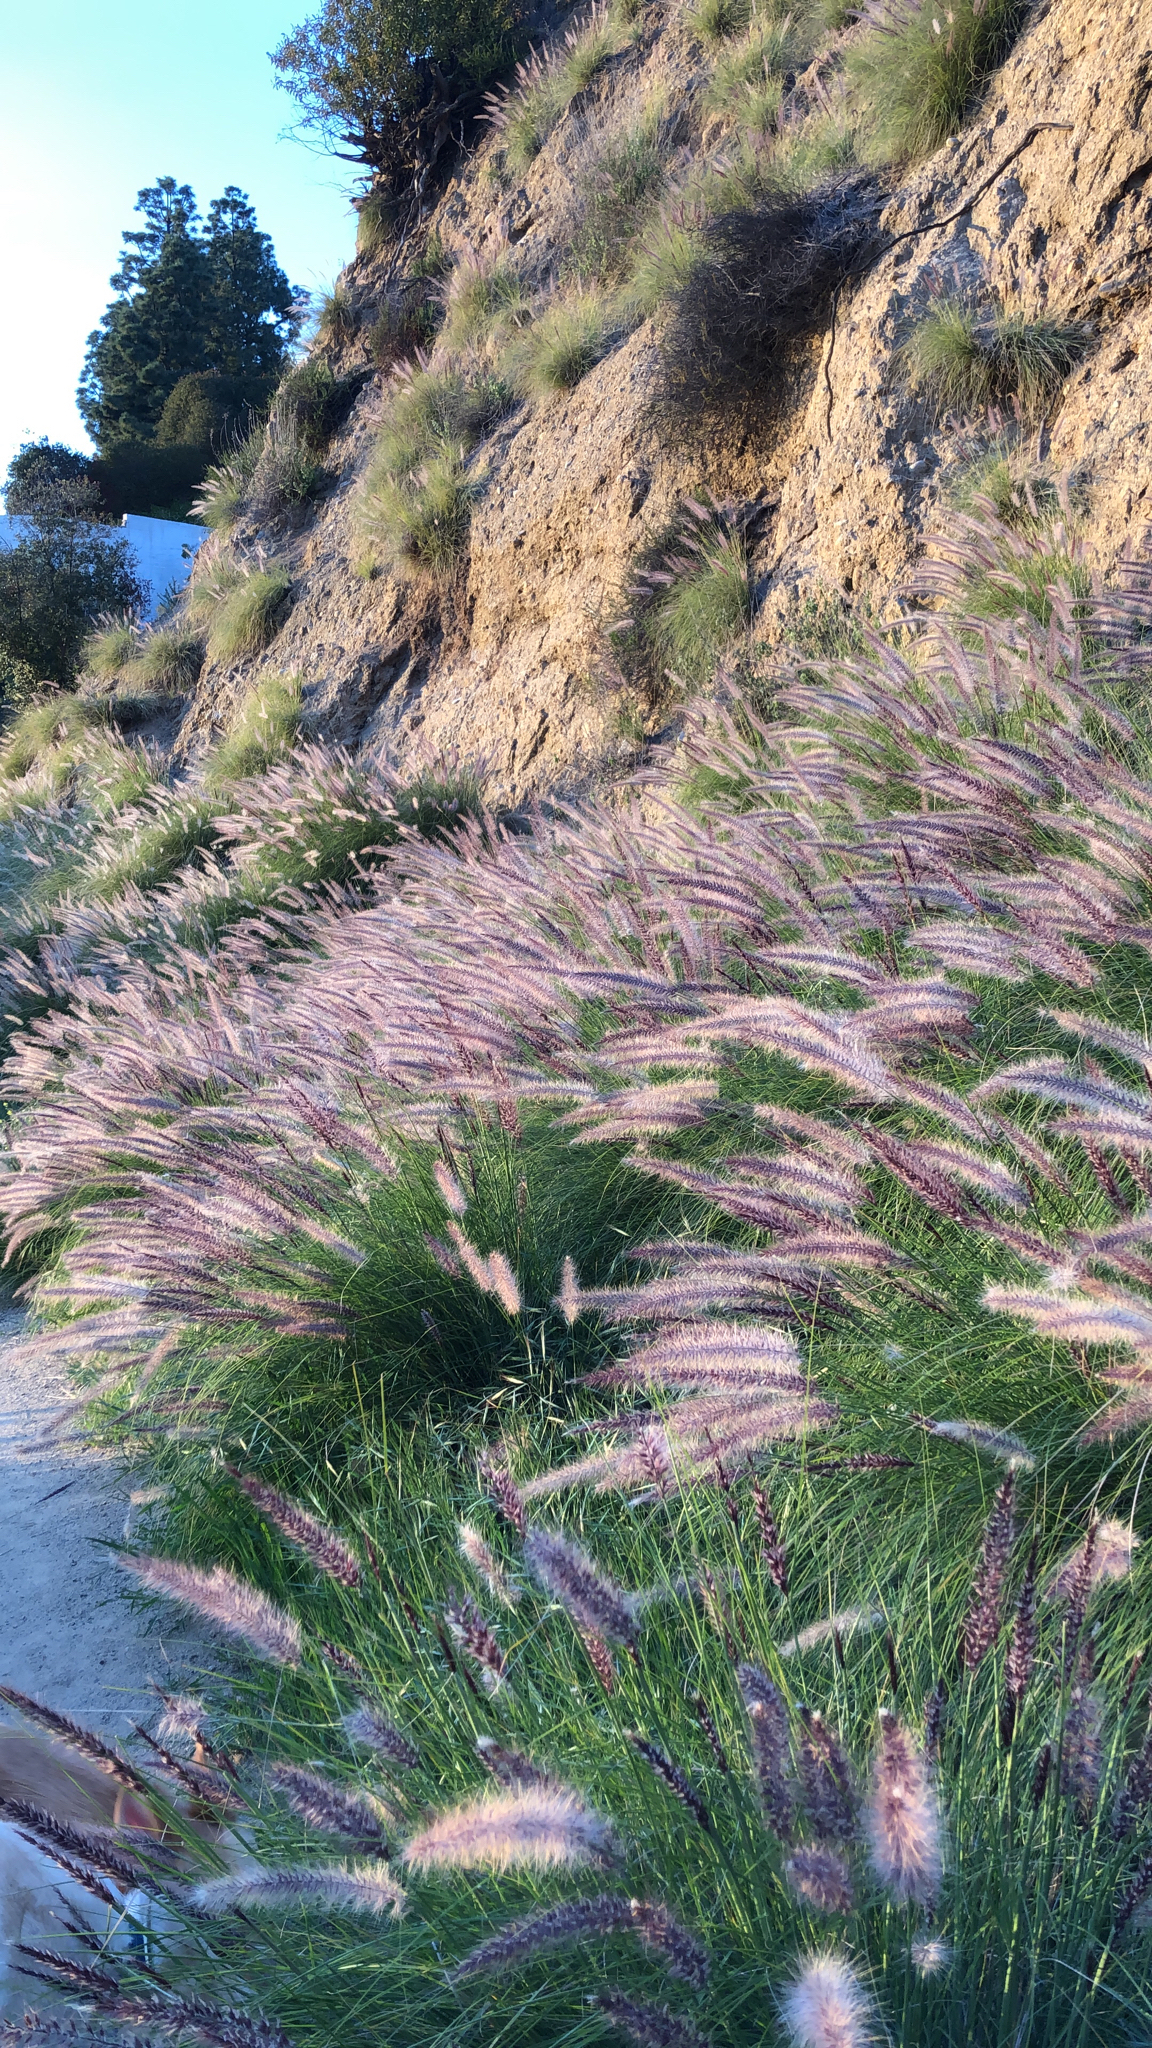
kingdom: Plantae
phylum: Tracheophyta
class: Liliopsida
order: Poales
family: Poaceae
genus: Cenchrus
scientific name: Cenchrus setaceus
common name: Crimson fountaingrass
